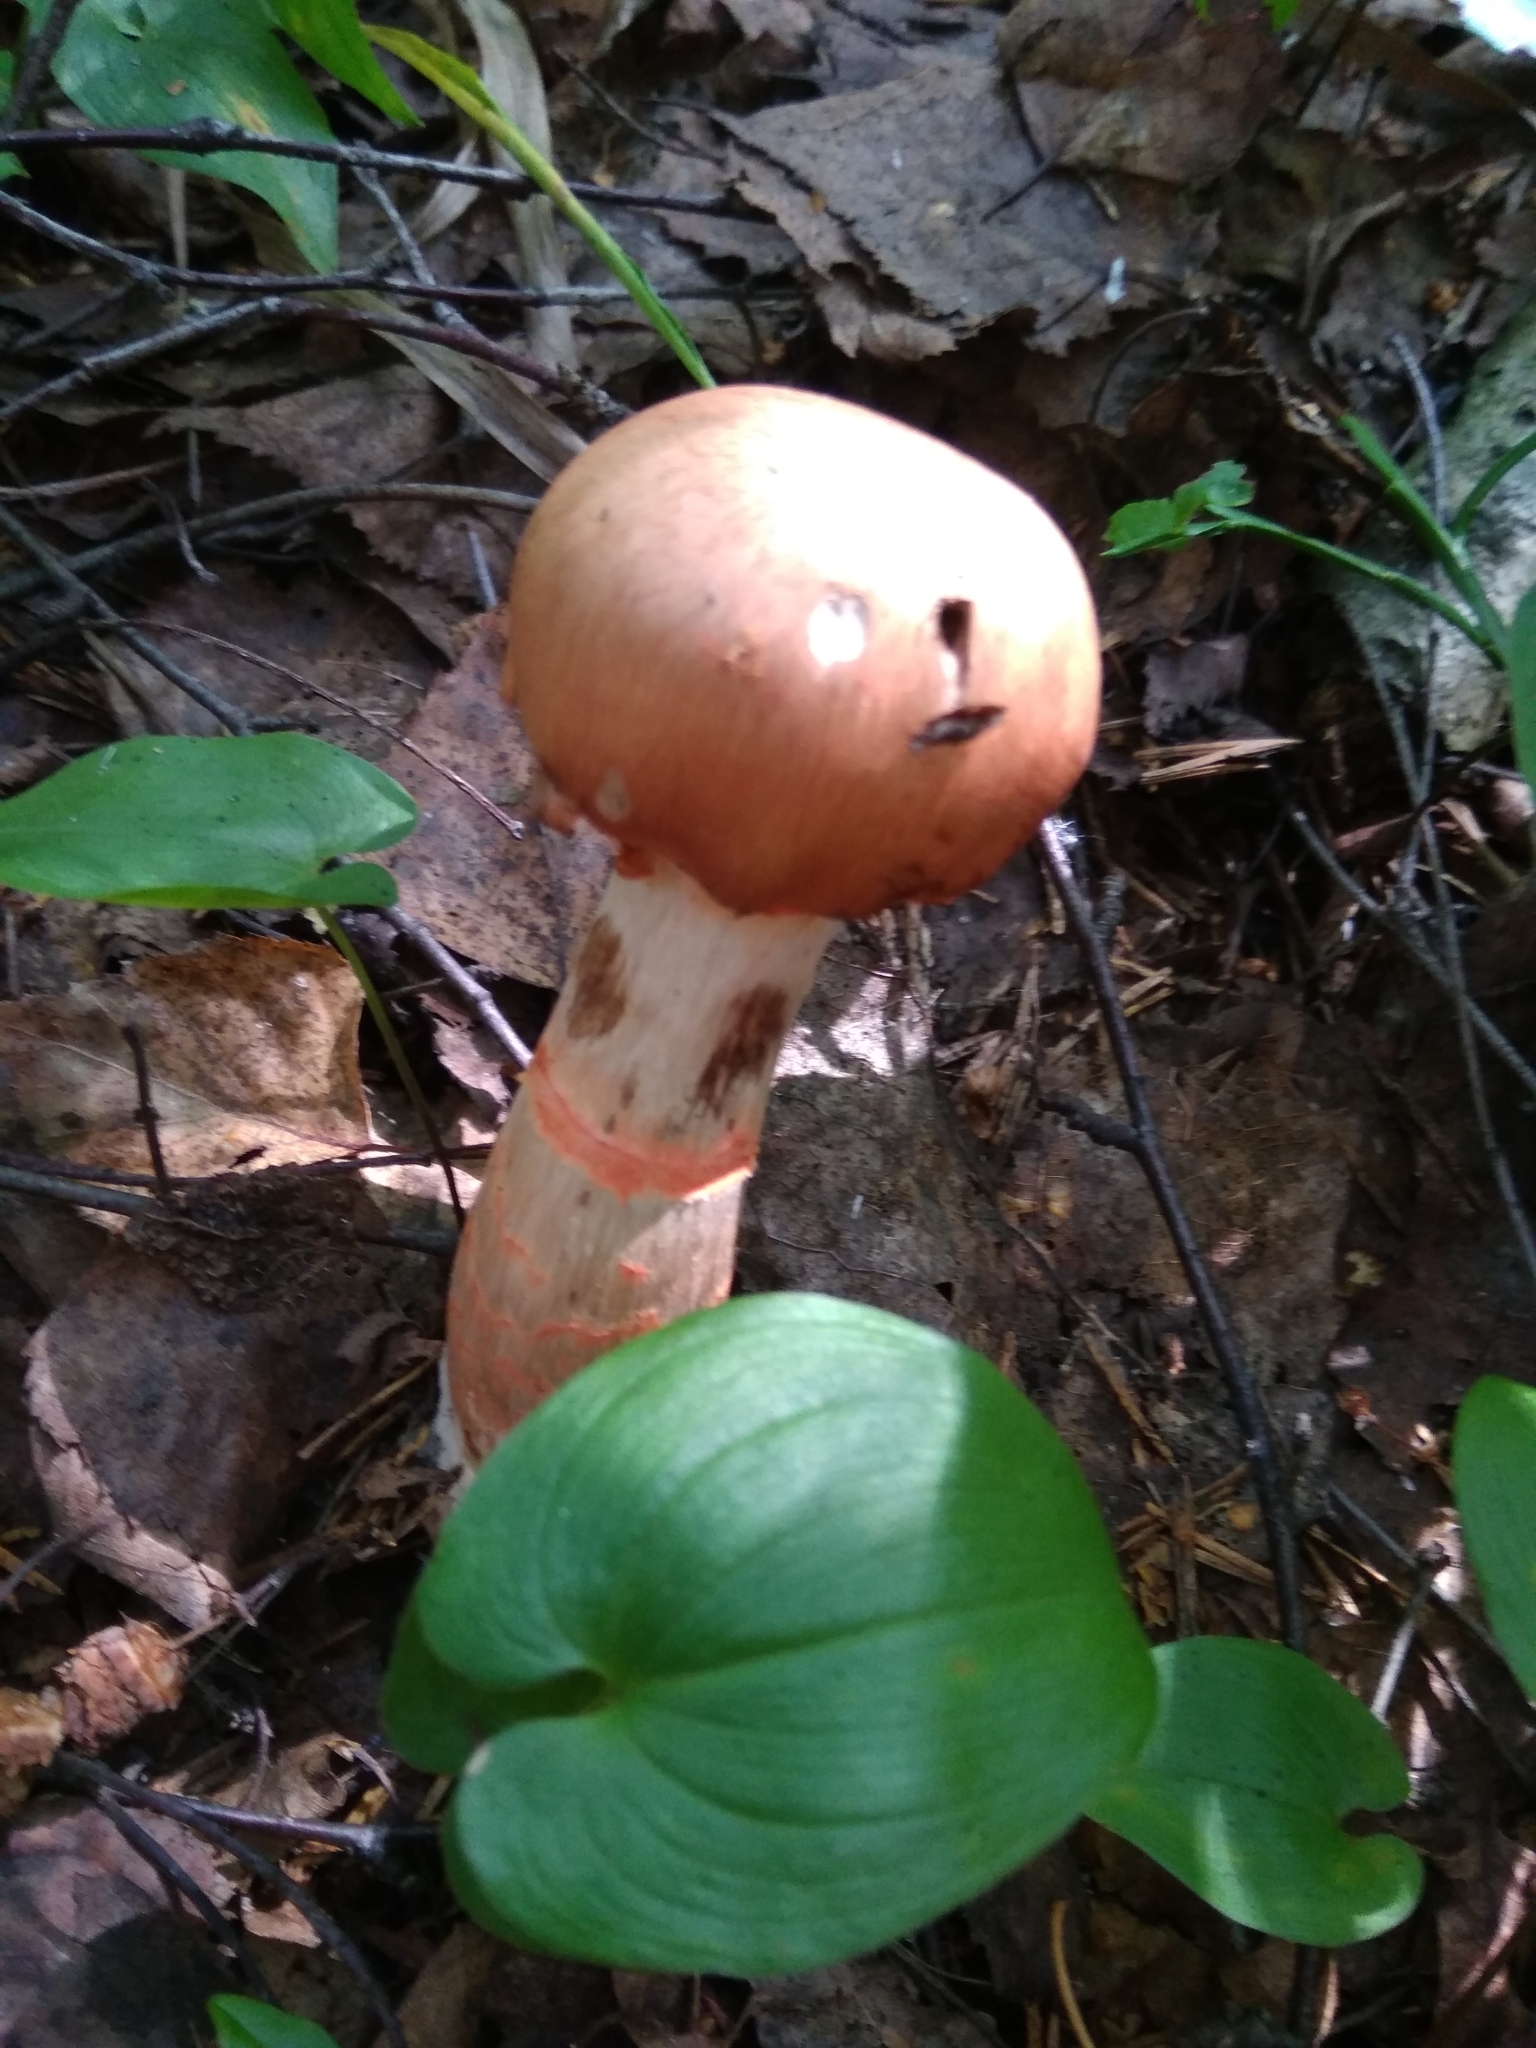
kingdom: Fungi
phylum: Basidiomycota
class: Agaricomycetes
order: Agaricales
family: Cortinariaceae
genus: Cortinarius
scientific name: Cortinarius armillatus
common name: Red banded webcap
